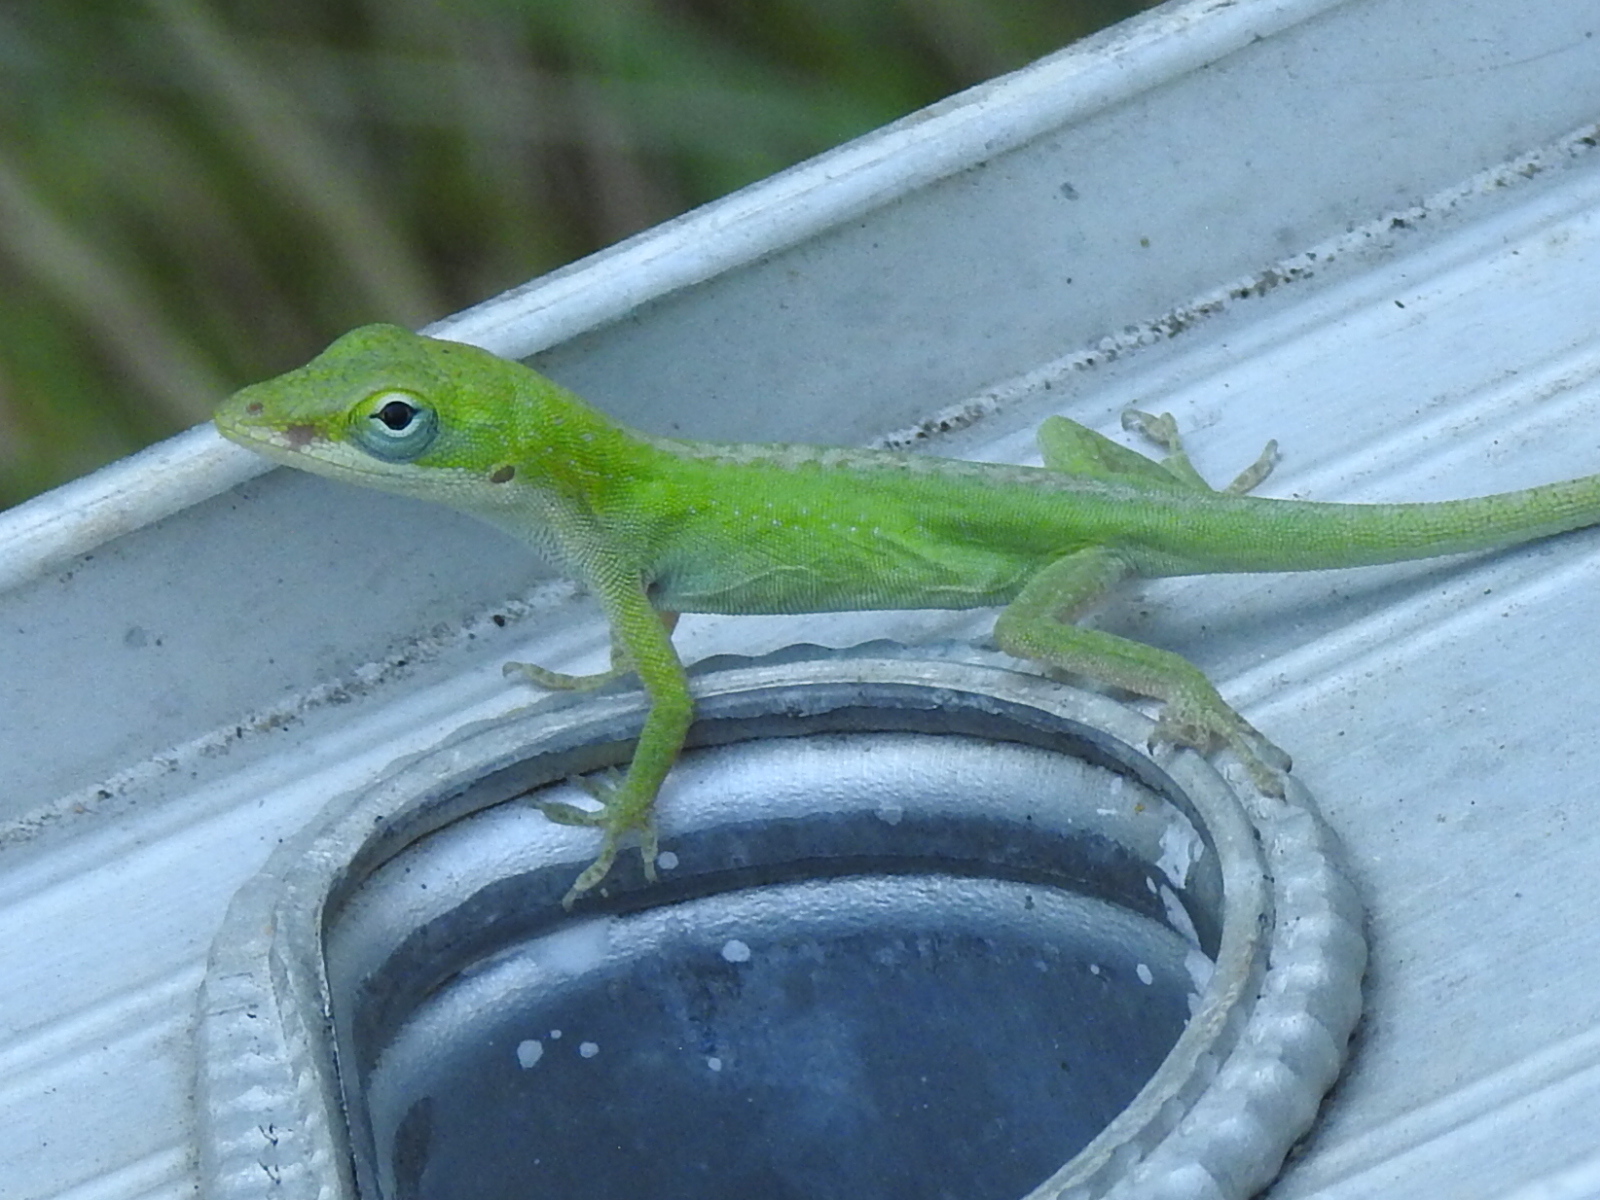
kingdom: Animalia
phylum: Chordata
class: Squamata
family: Dactyloidae
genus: Anolis
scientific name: Anolis carolinensis
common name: Green anole
